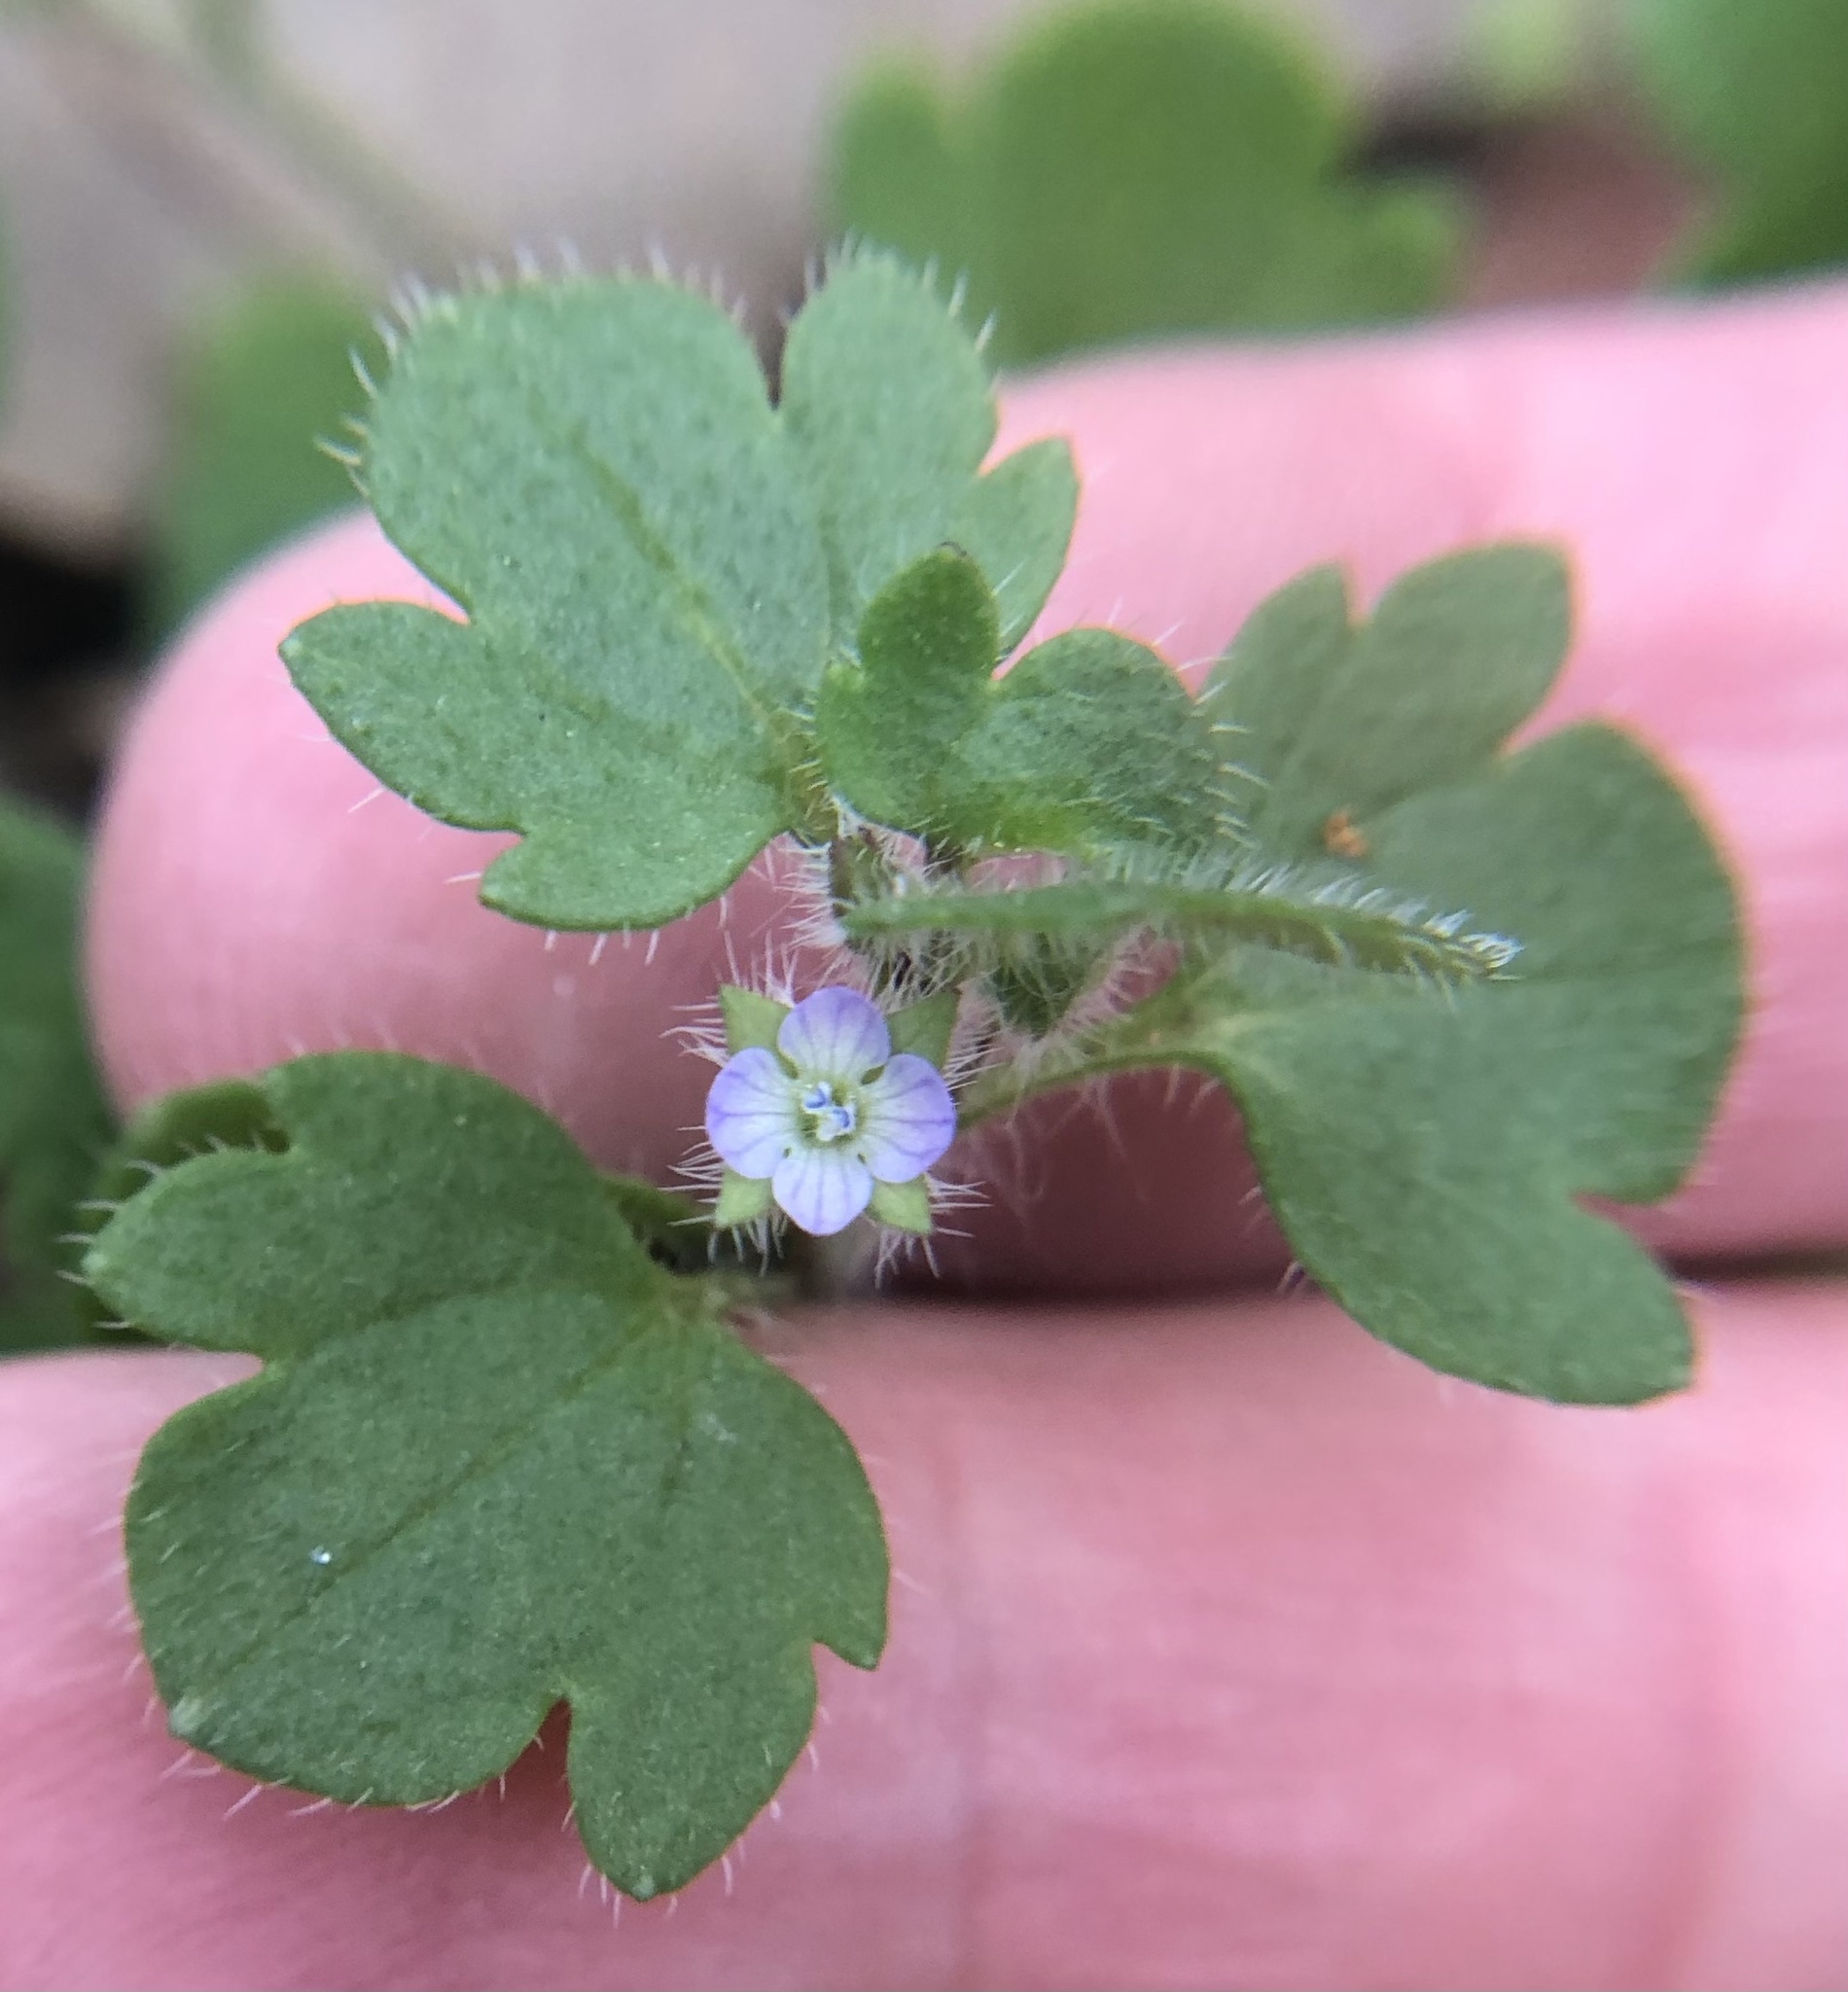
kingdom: Plantae
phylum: Tracheophyta
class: Magnoliopsida
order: Lamiales
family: Plantaginaceae
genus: Veronica
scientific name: Veronica hederifolia
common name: Ivy-leaved speedwell
